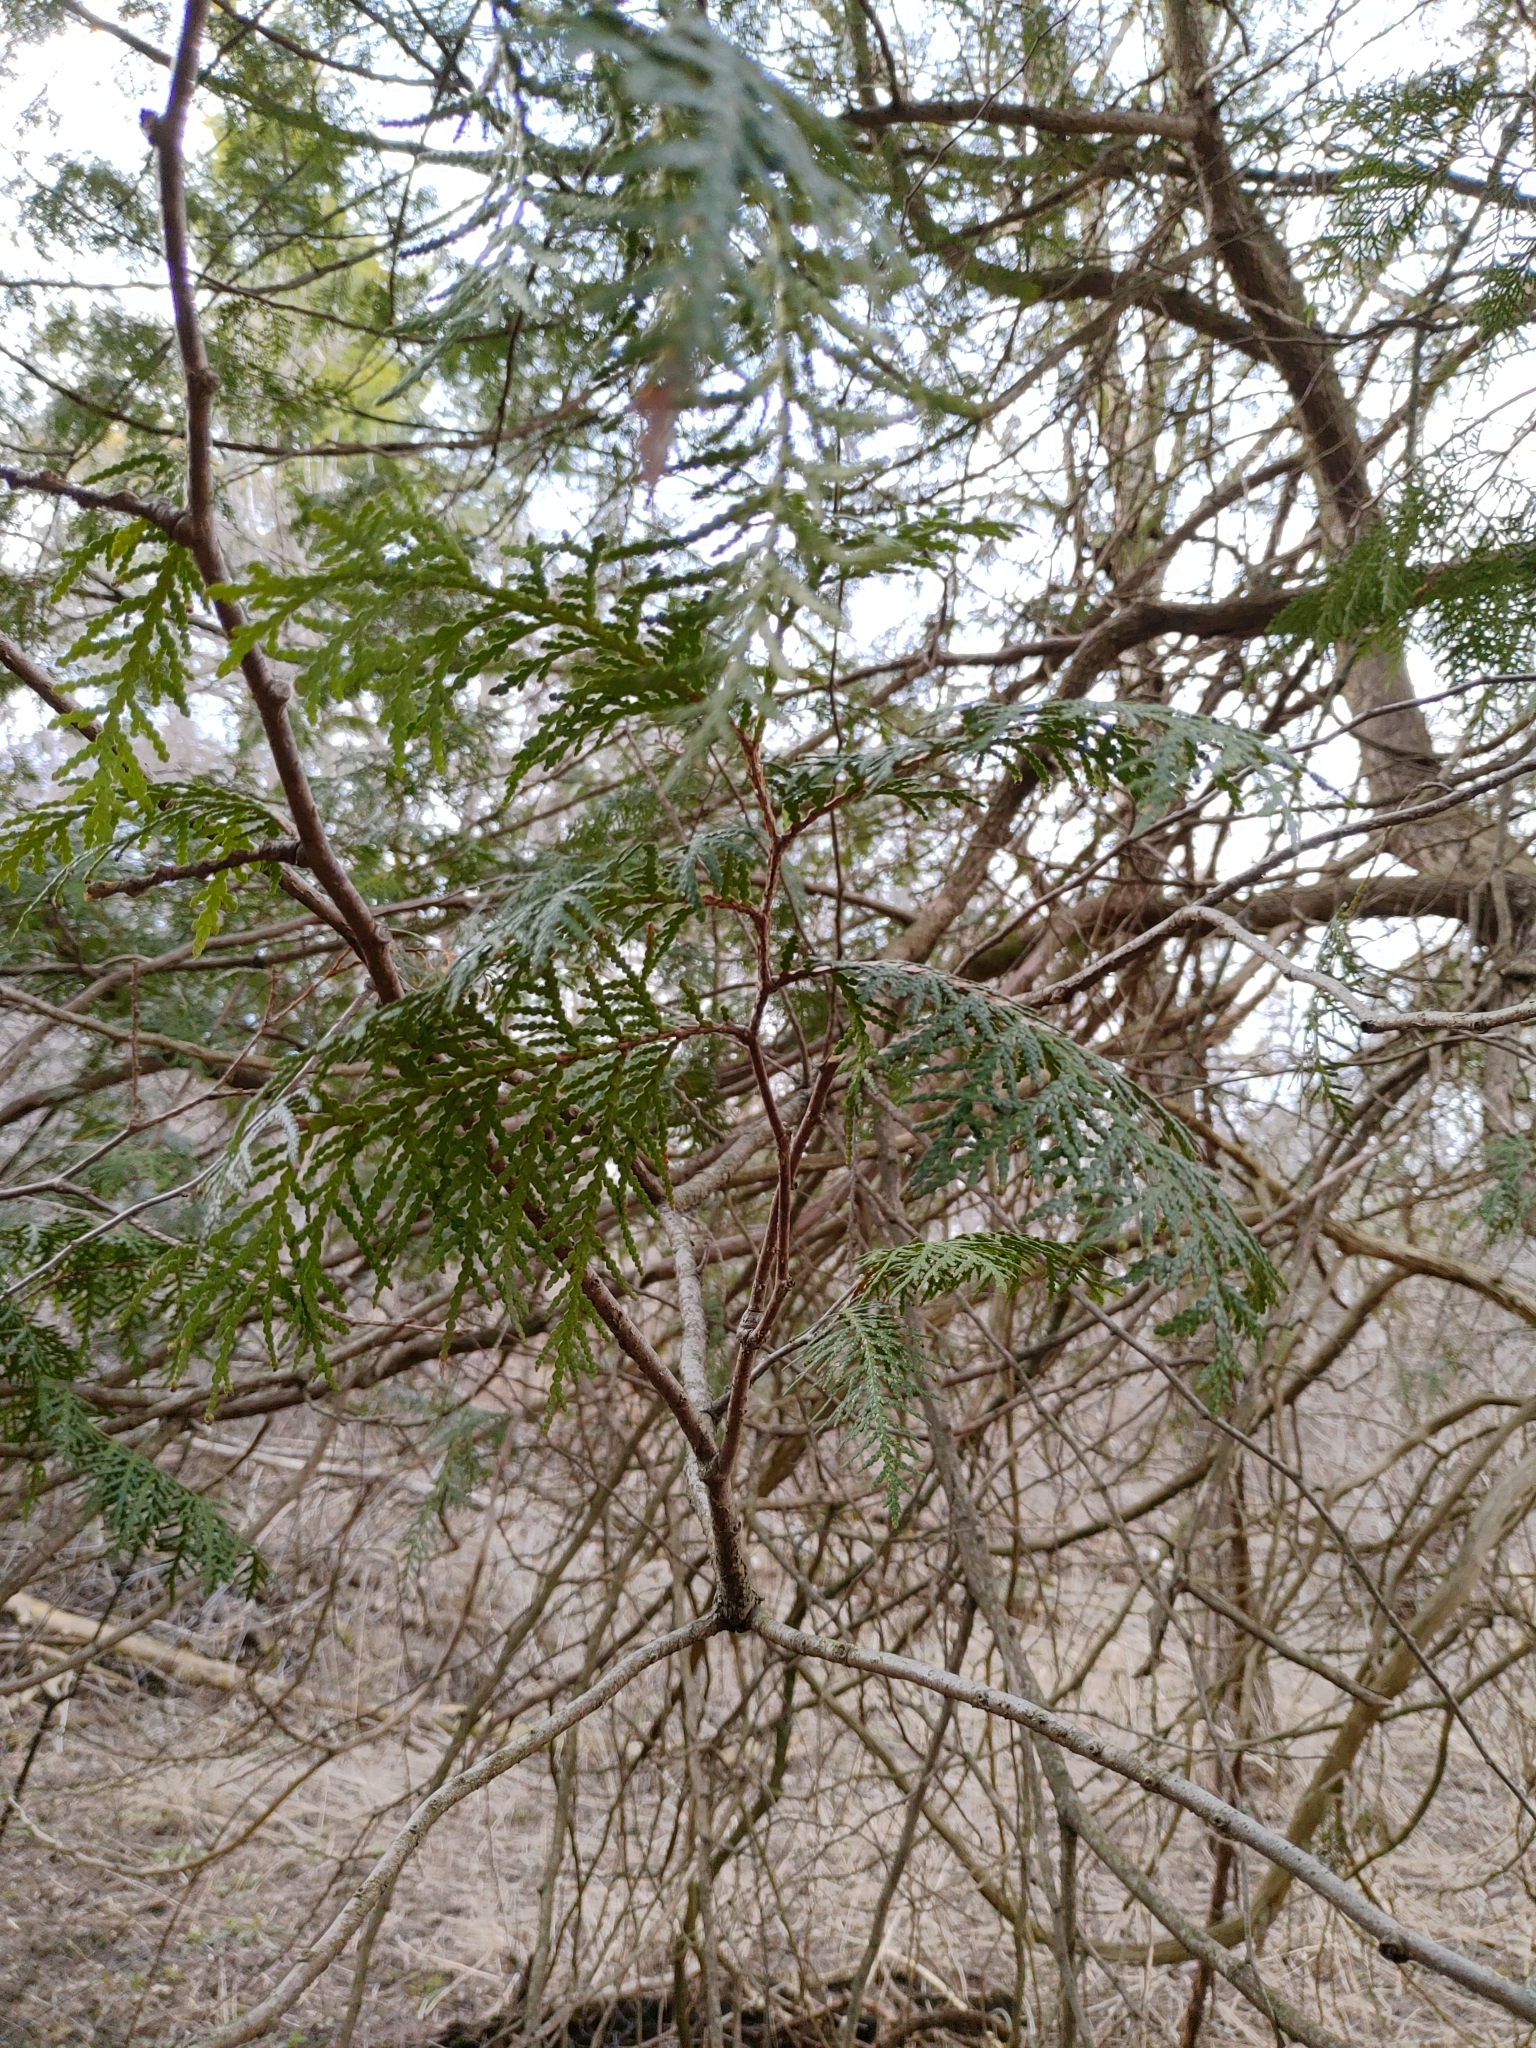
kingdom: Plantae
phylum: Tracheophyta
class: Pinopsida
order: Pinales
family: Cupressaceae
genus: Thuja
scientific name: Thuja occidentalis
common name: Northern white-cedar
